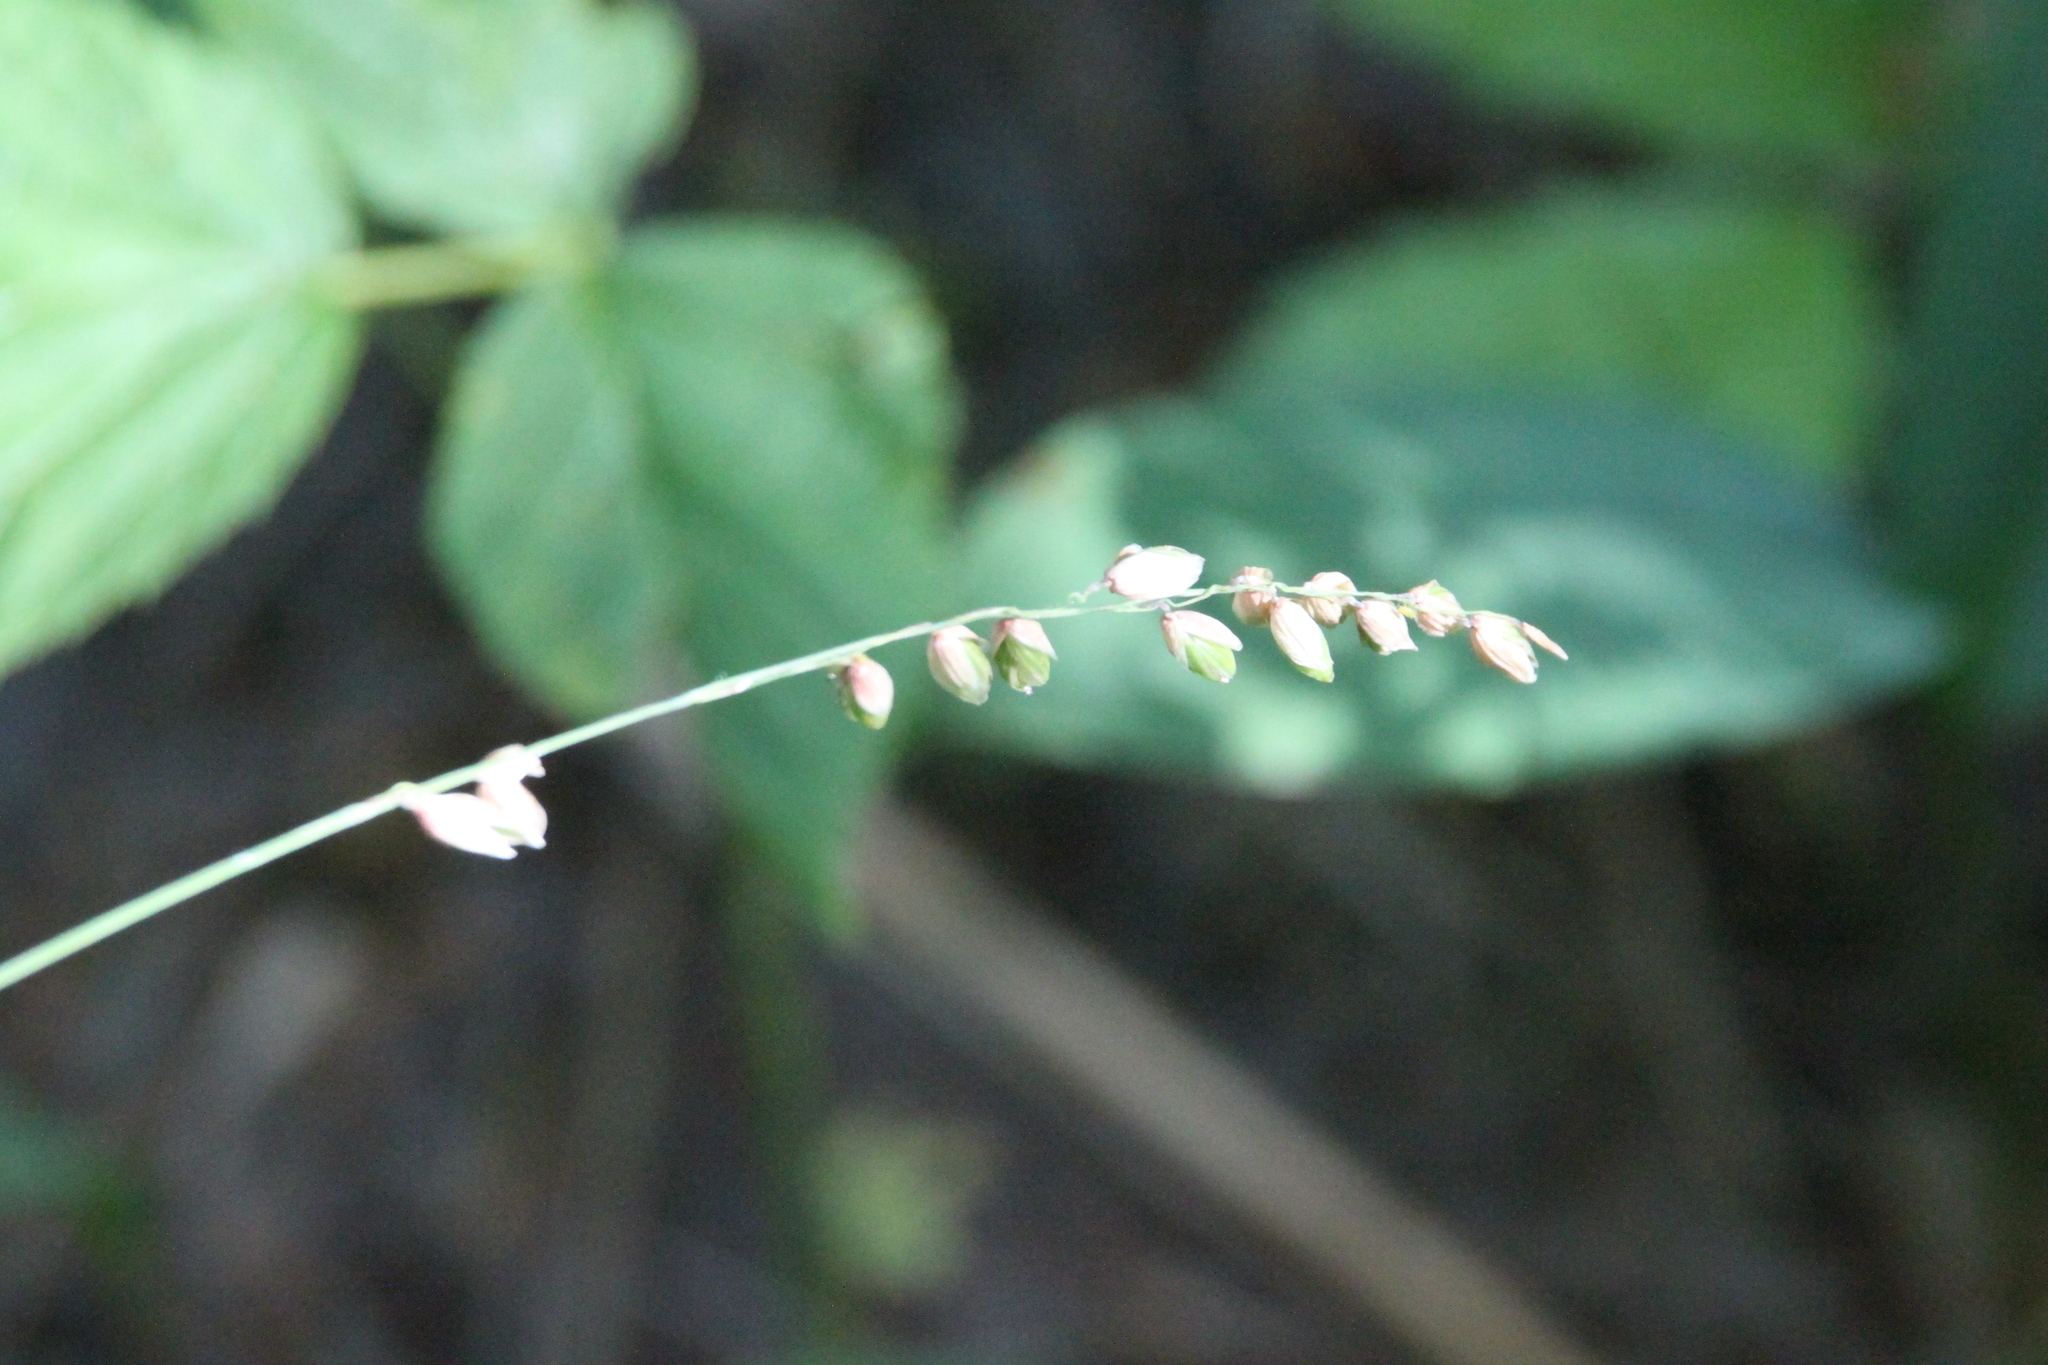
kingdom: Plantae
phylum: Tracheophyta
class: Liliopsida
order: Poales
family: Poaceae
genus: Melica
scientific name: Melica nutans
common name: Mountain melick
